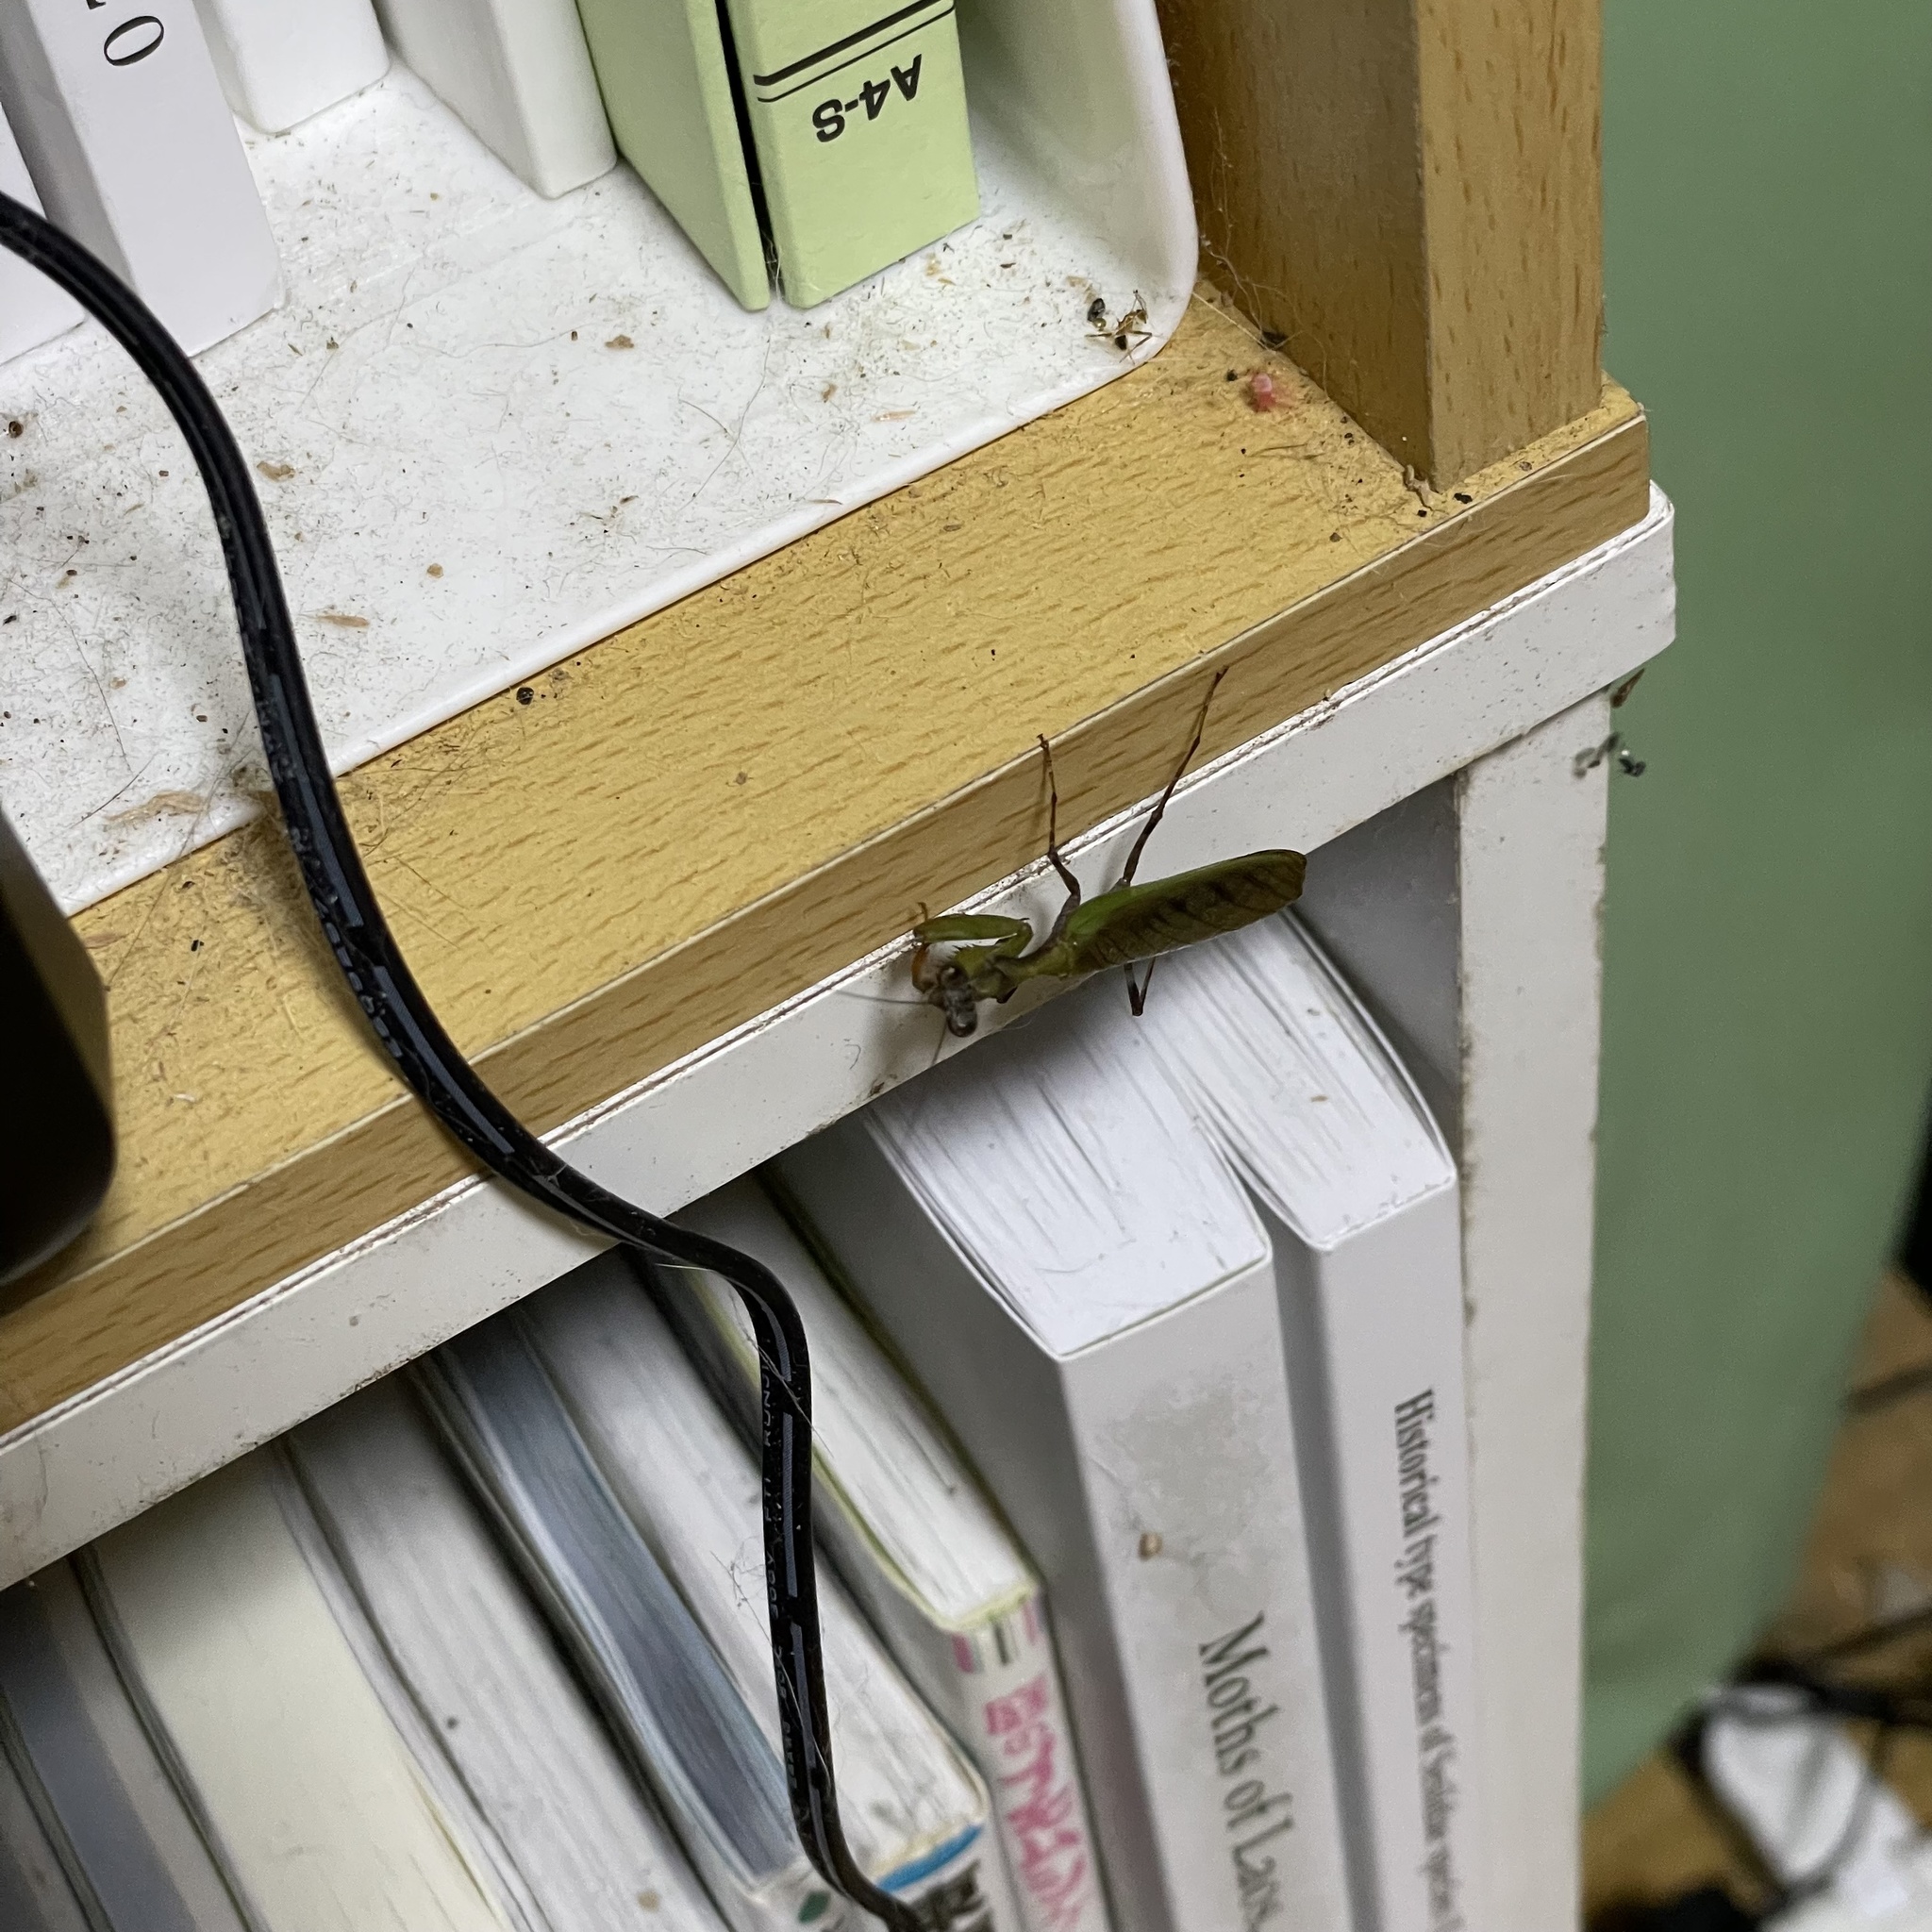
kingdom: Animalia
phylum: Arthropoda
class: Insecta
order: Mantodea
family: Hymenopodidae
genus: Acromantis
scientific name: Acromantis satsumensis
